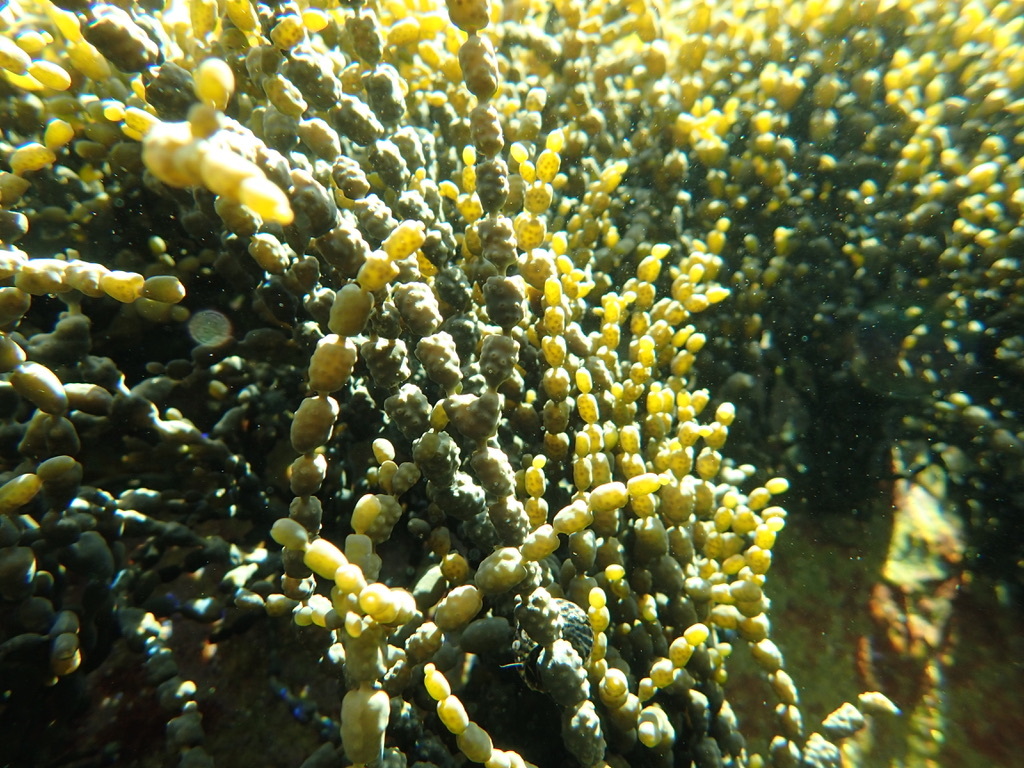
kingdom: Chromista
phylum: Ochrophyta
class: Phaeophyceae
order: Fucales
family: Hormosiraceae
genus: Hormosira
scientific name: Hormosira banksii
